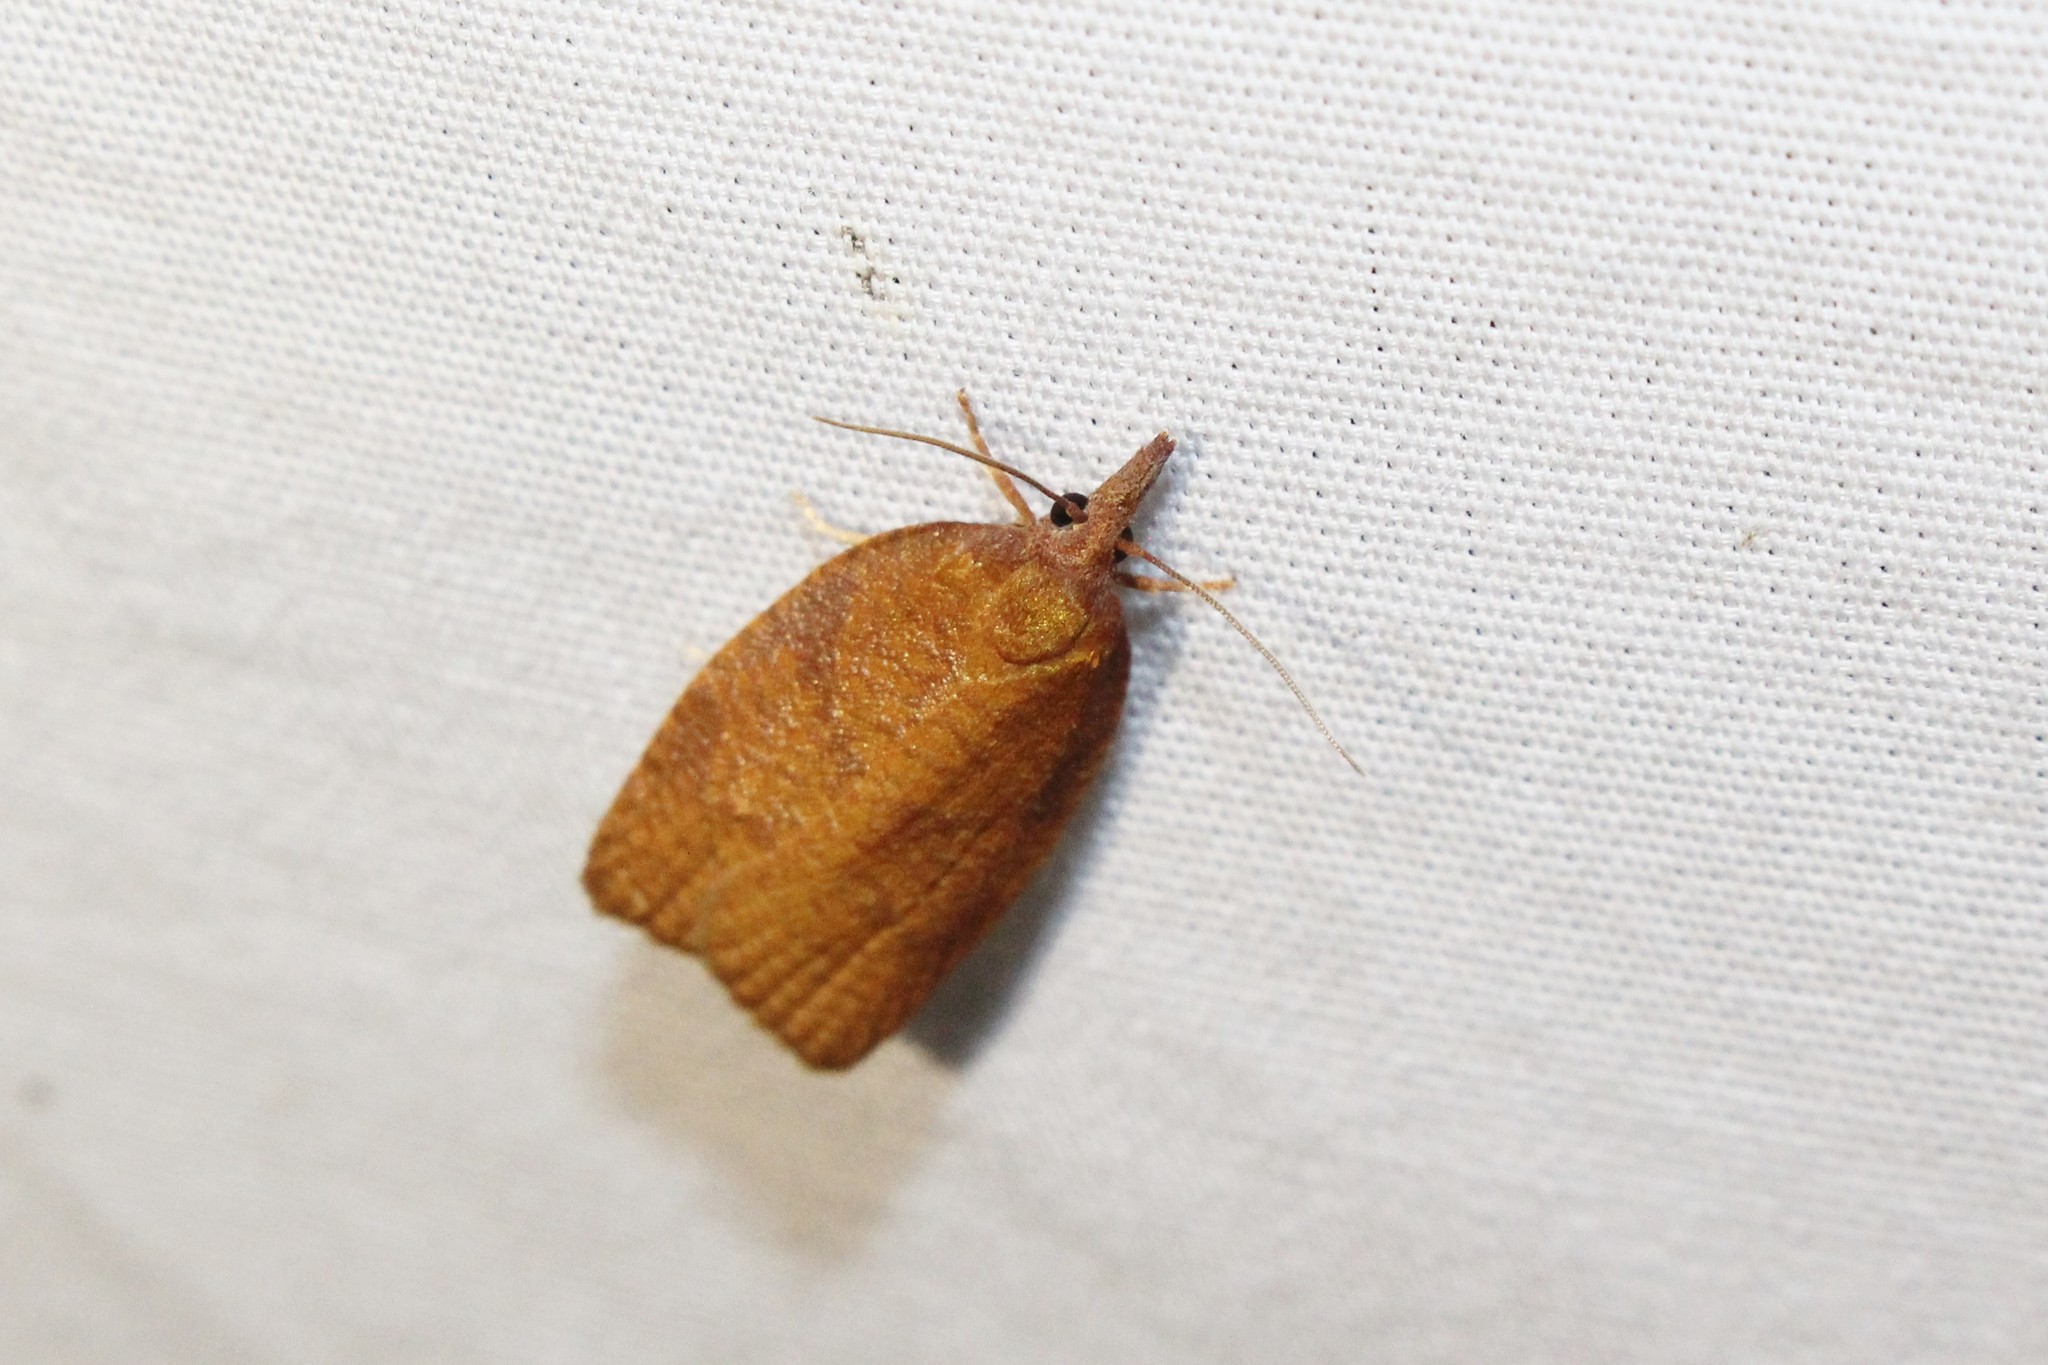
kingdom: Animalia
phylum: Arthropoda
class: Insecta
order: Lepidoptera
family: Tortricidae
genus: Cenopis
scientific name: Cenopis directana
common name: Chokecherry leafroller moth
